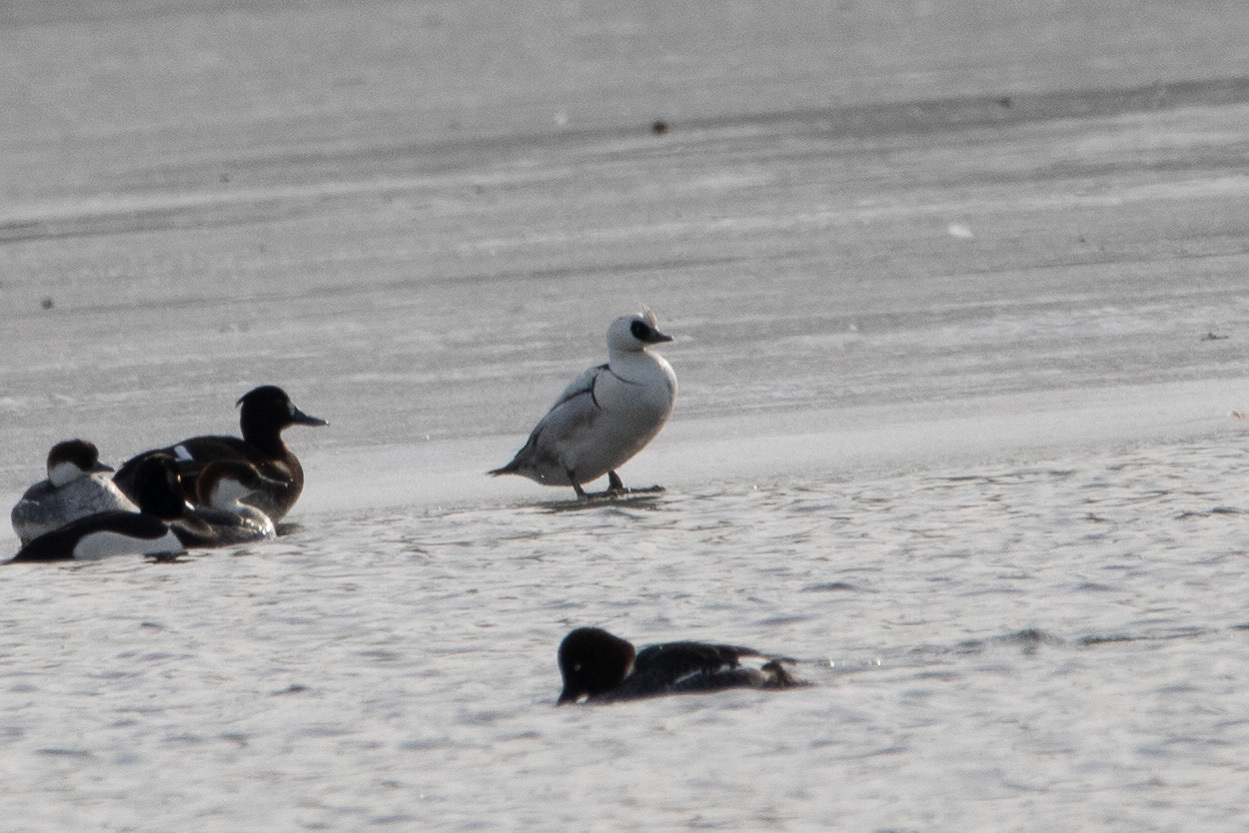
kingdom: Animalia
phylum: Chordata
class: Aves
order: Anseriformes
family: Anatidae
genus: Mergellus
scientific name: Mergellus albellus
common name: Smew
